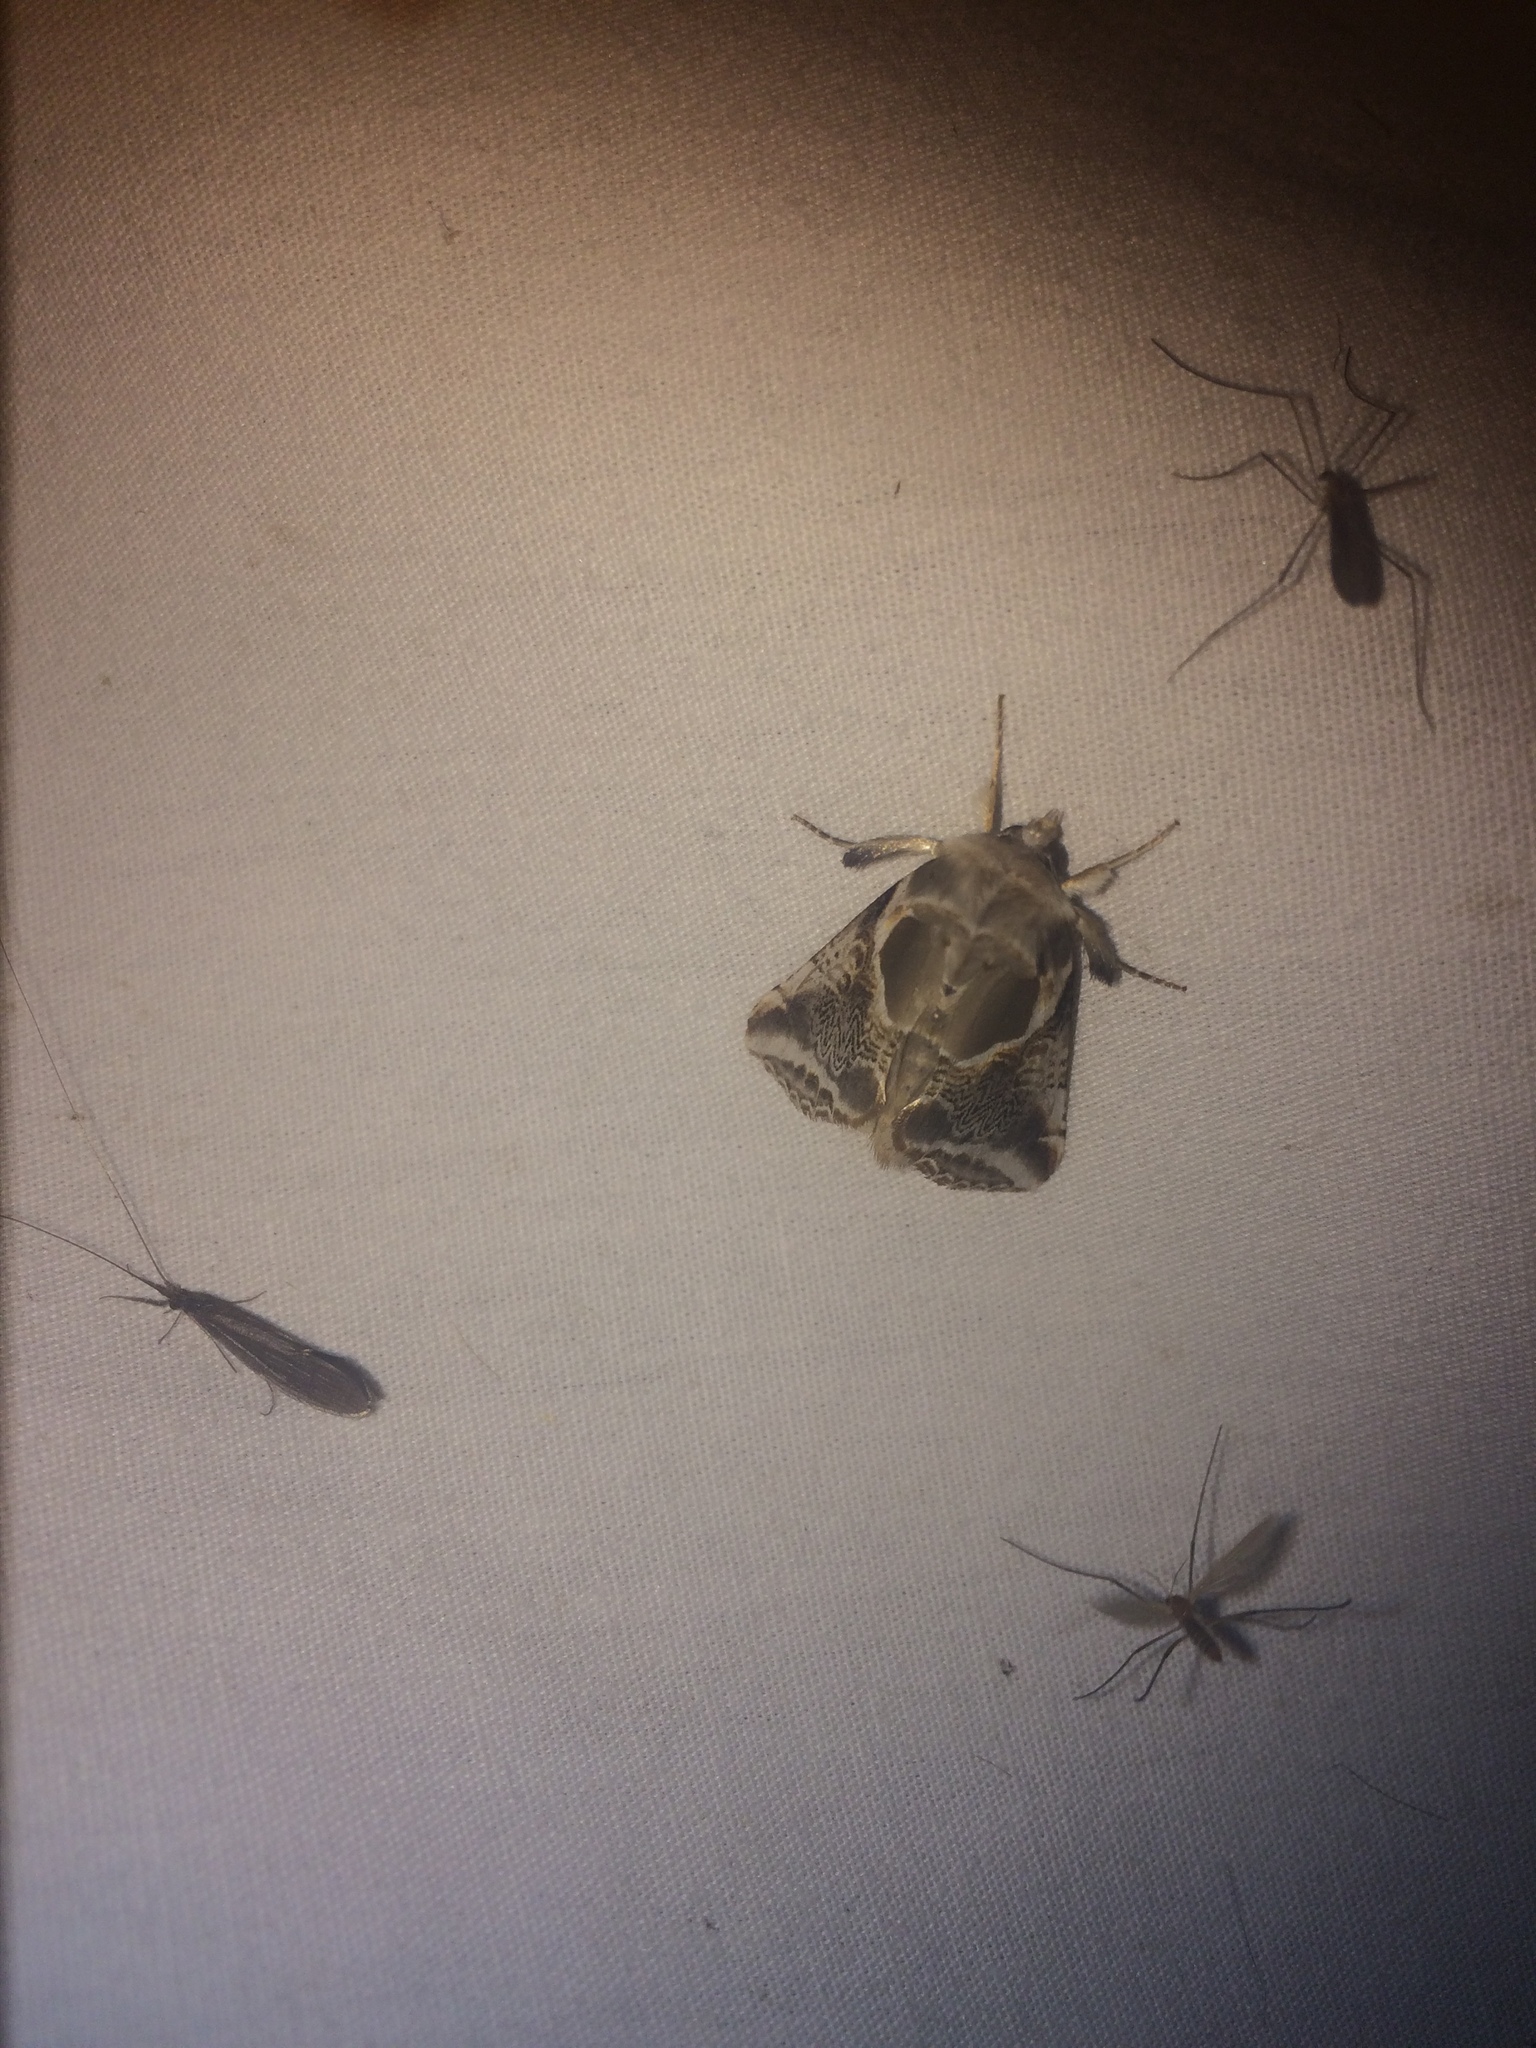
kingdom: Animalia
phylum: Arthropoda
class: Insecta
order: Lepidoptera
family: Drepanidae
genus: Habrosyne
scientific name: Habrosyne scripta
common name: Lettered habrosyne moth
